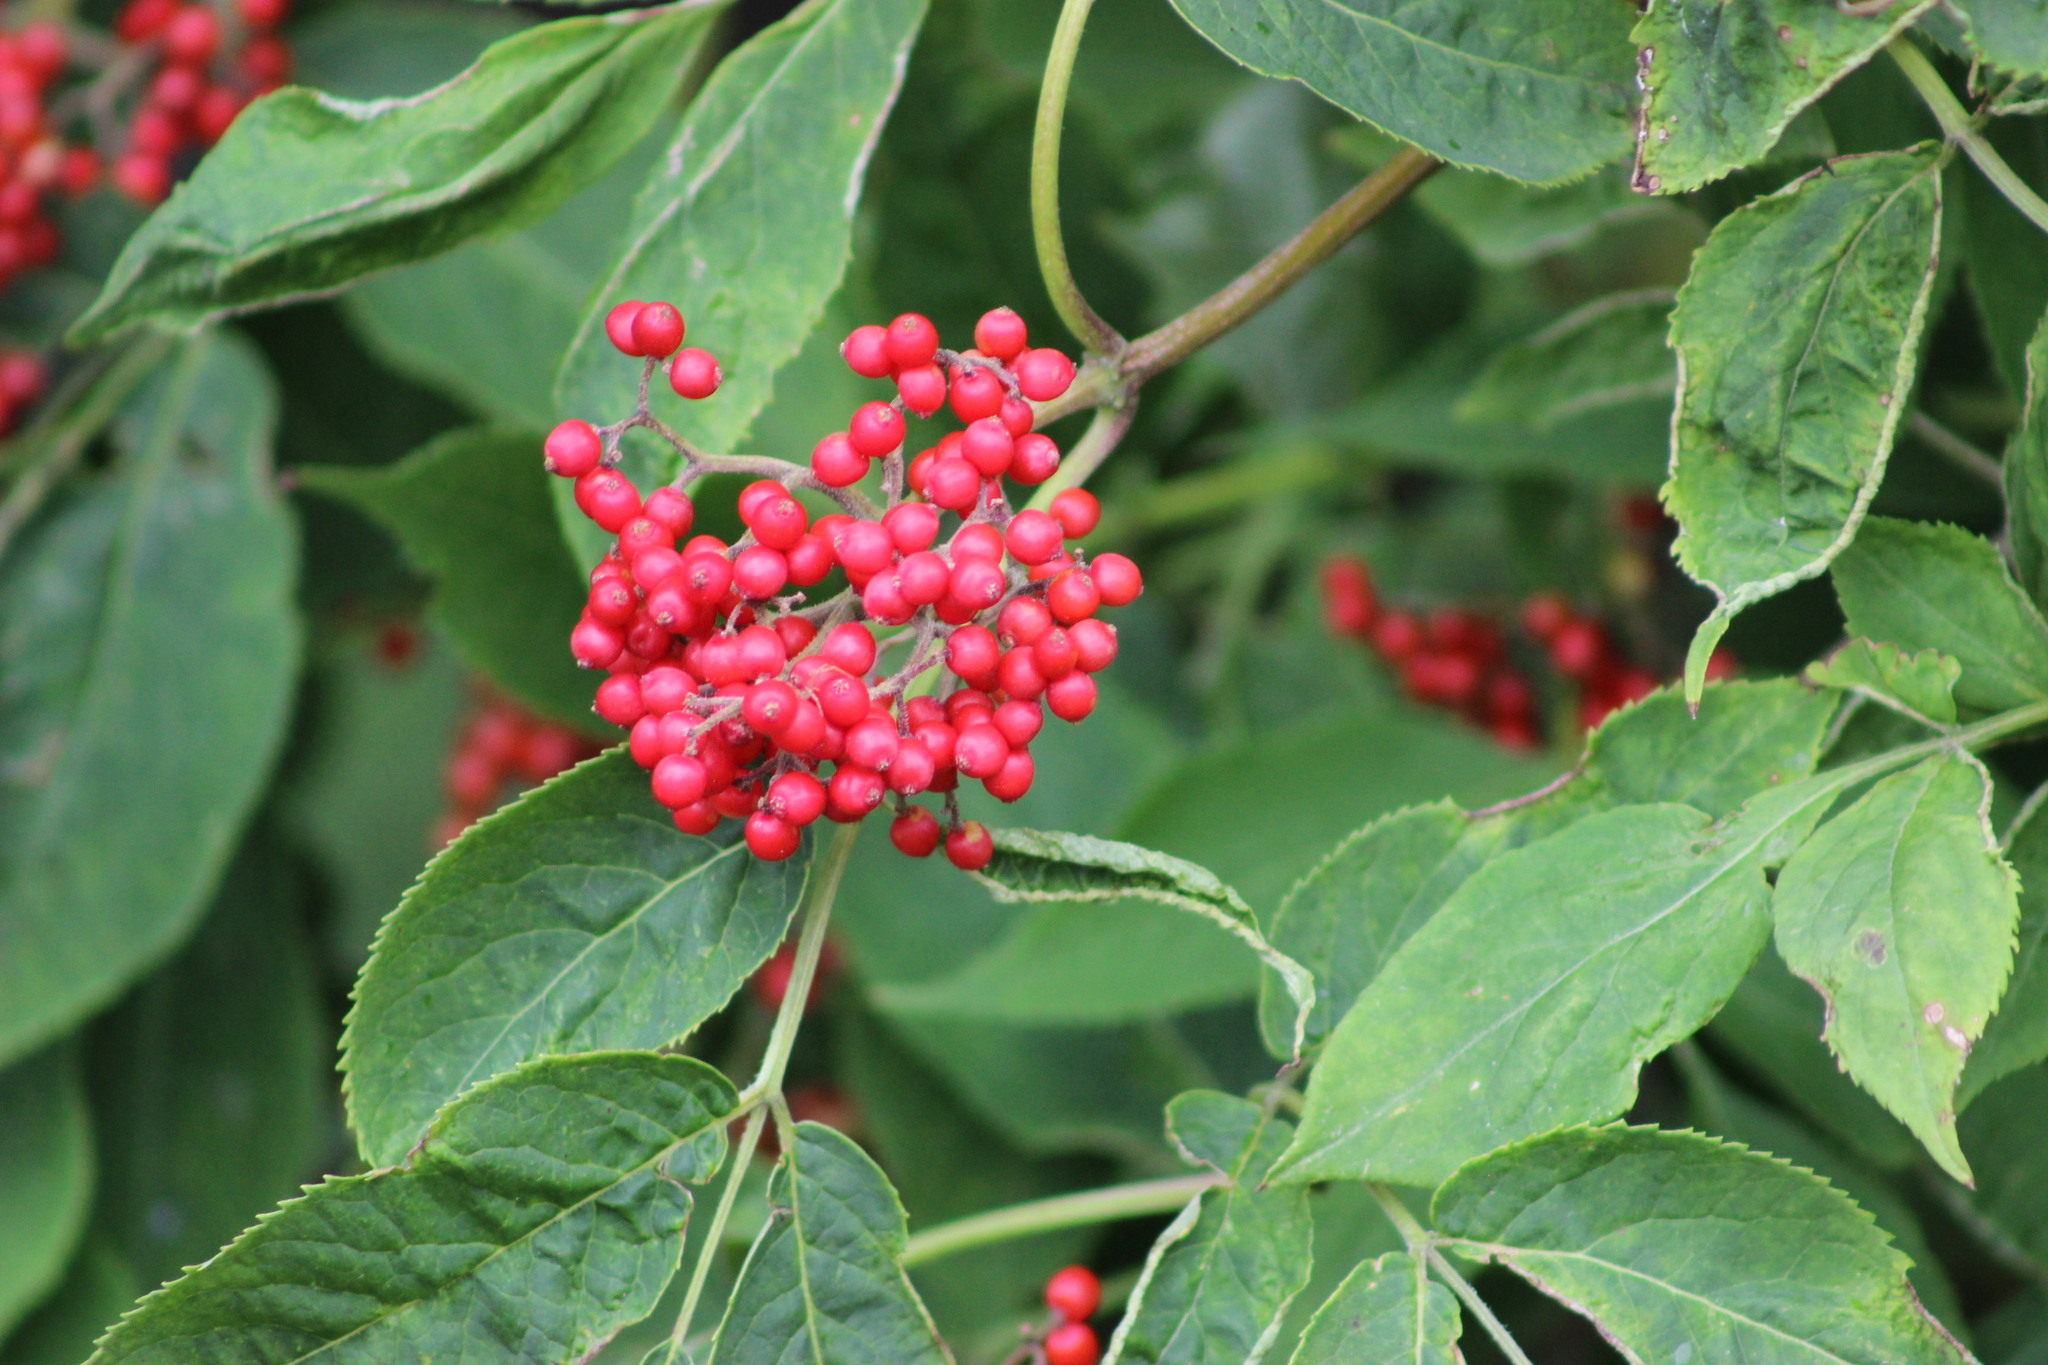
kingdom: Plantae
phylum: Tracheophyta
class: Magnoliopsida
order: Dipsacales
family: Viburnaceae
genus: Sambucus
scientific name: Sambucus sibirica
